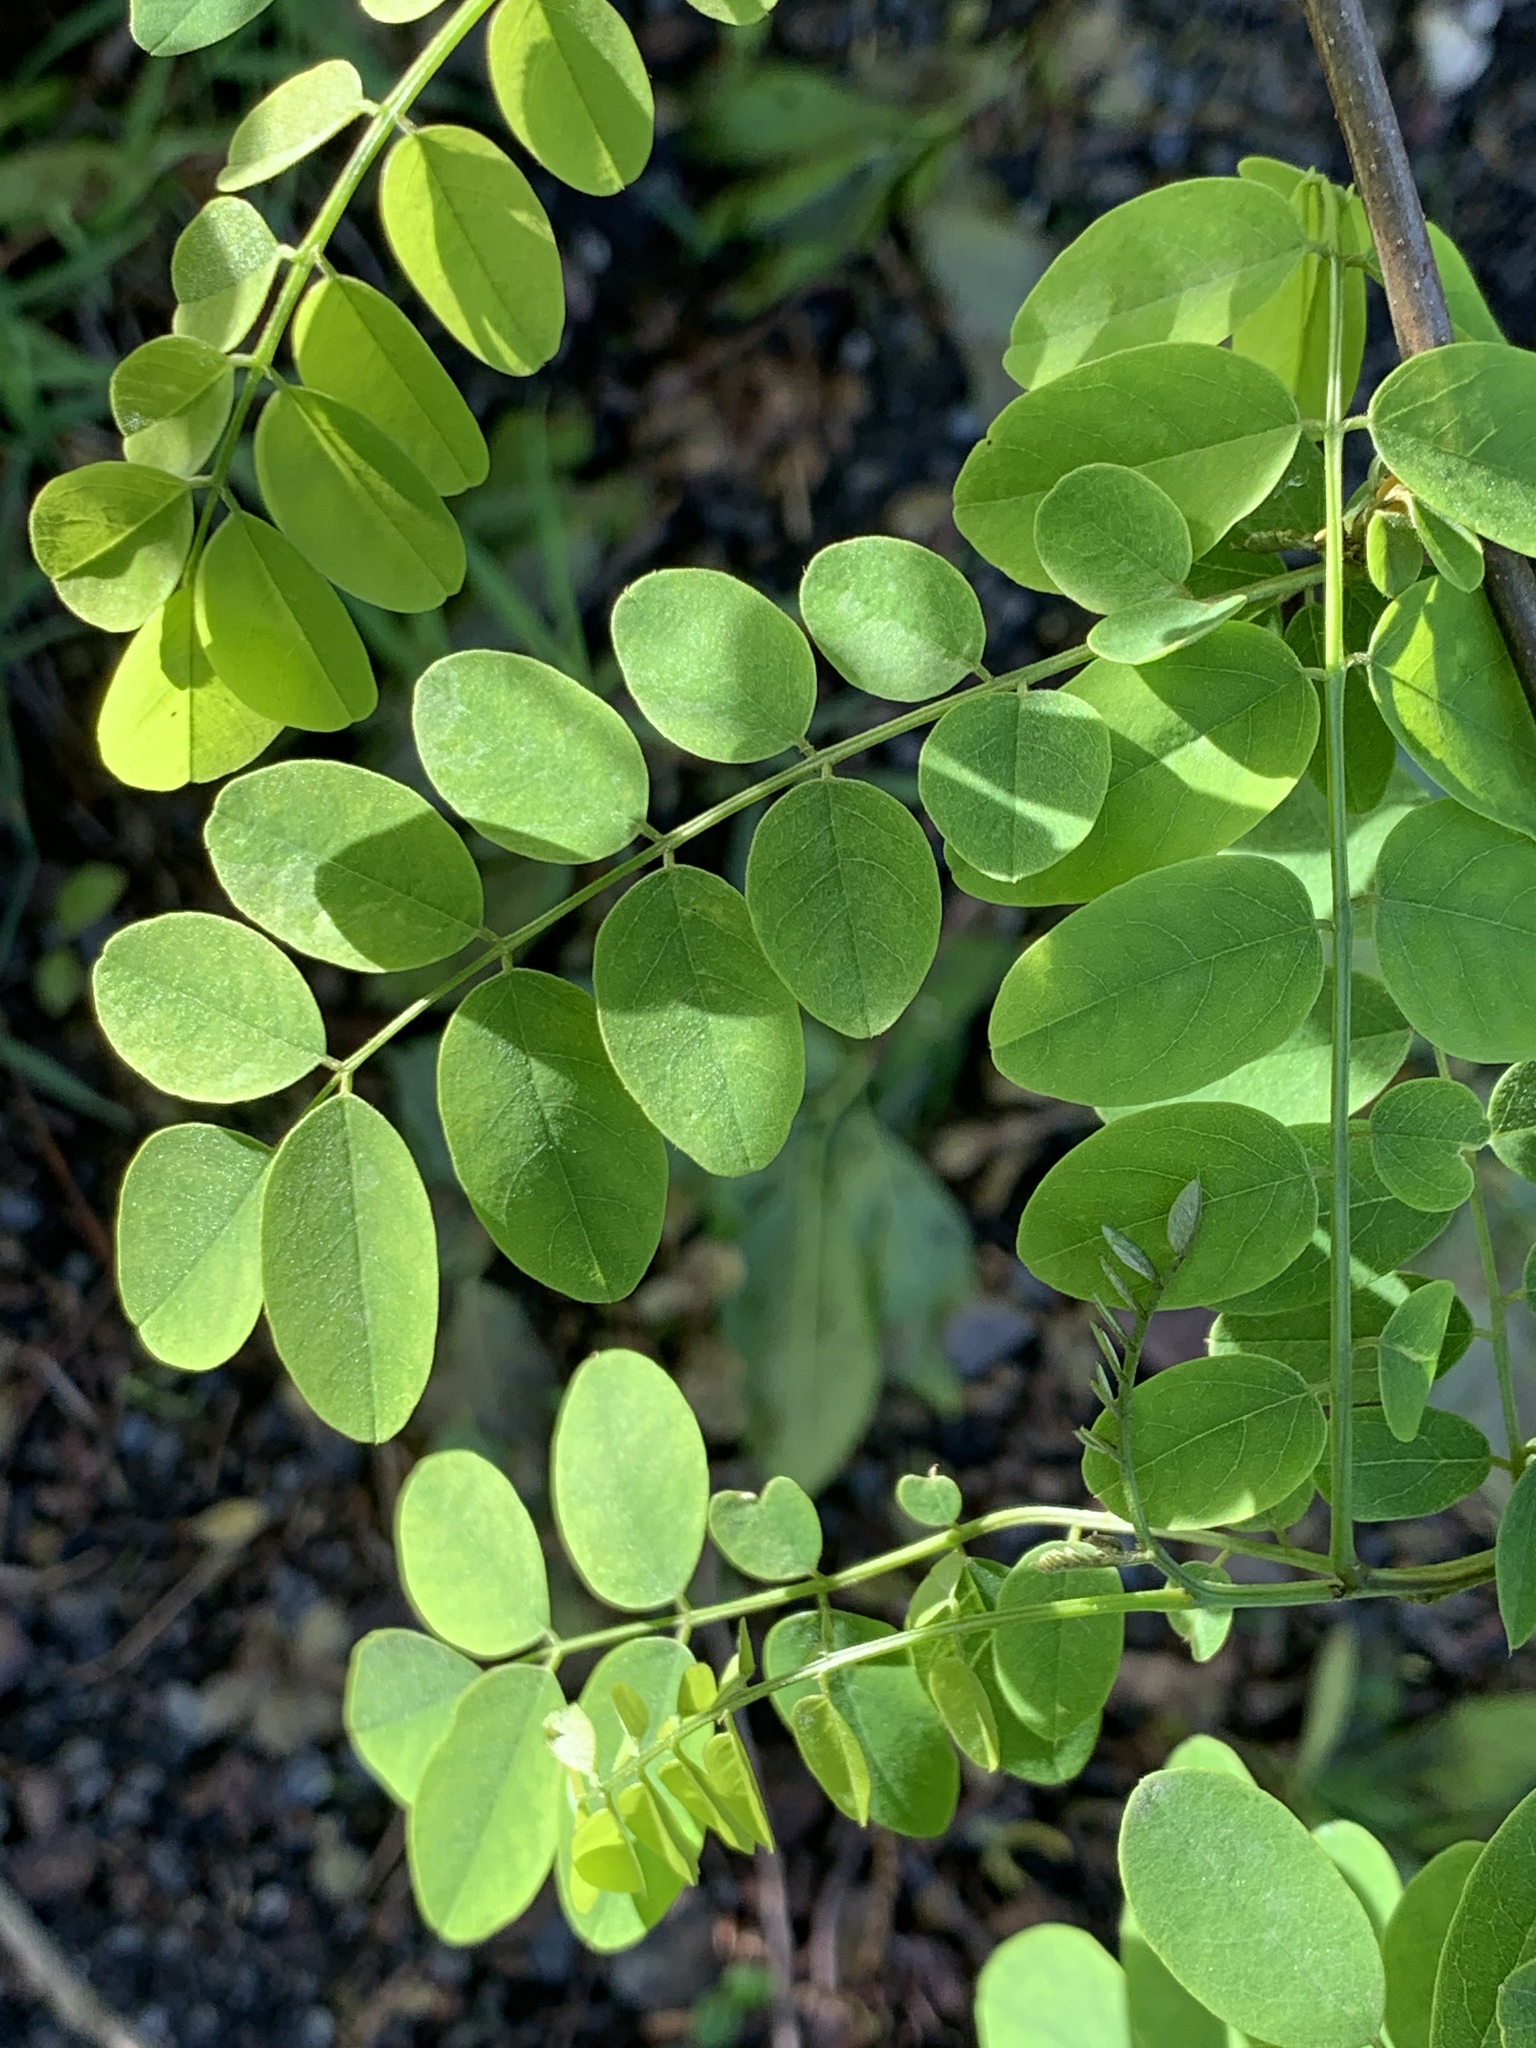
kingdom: Plantae
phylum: Tracheophyta
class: Magnoliopsida
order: Fabales
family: Fabaceae
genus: Robinia
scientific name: Robinia pseudoacacia
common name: Black locust
